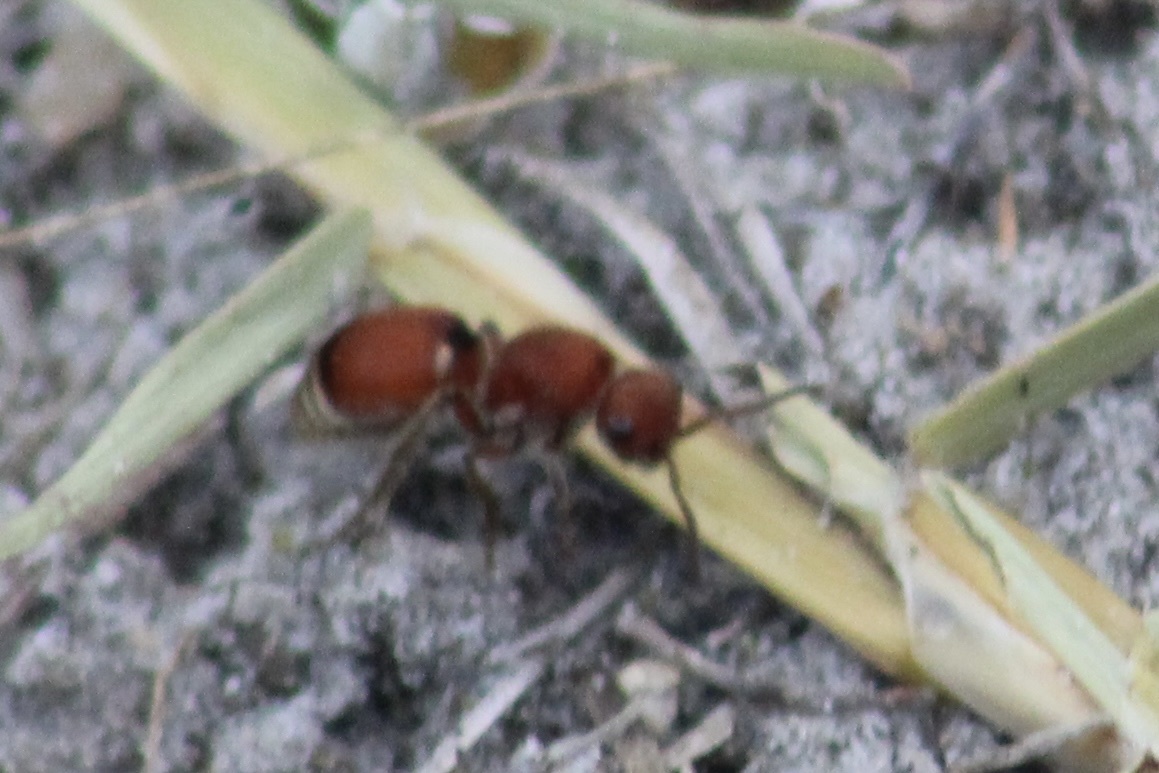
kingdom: Animalia
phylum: Arthropoda
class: Insecta
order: Hymenoptera
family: Mutillidae
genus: Pseudomethoca
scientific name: Pseudomethoca sanbornii
